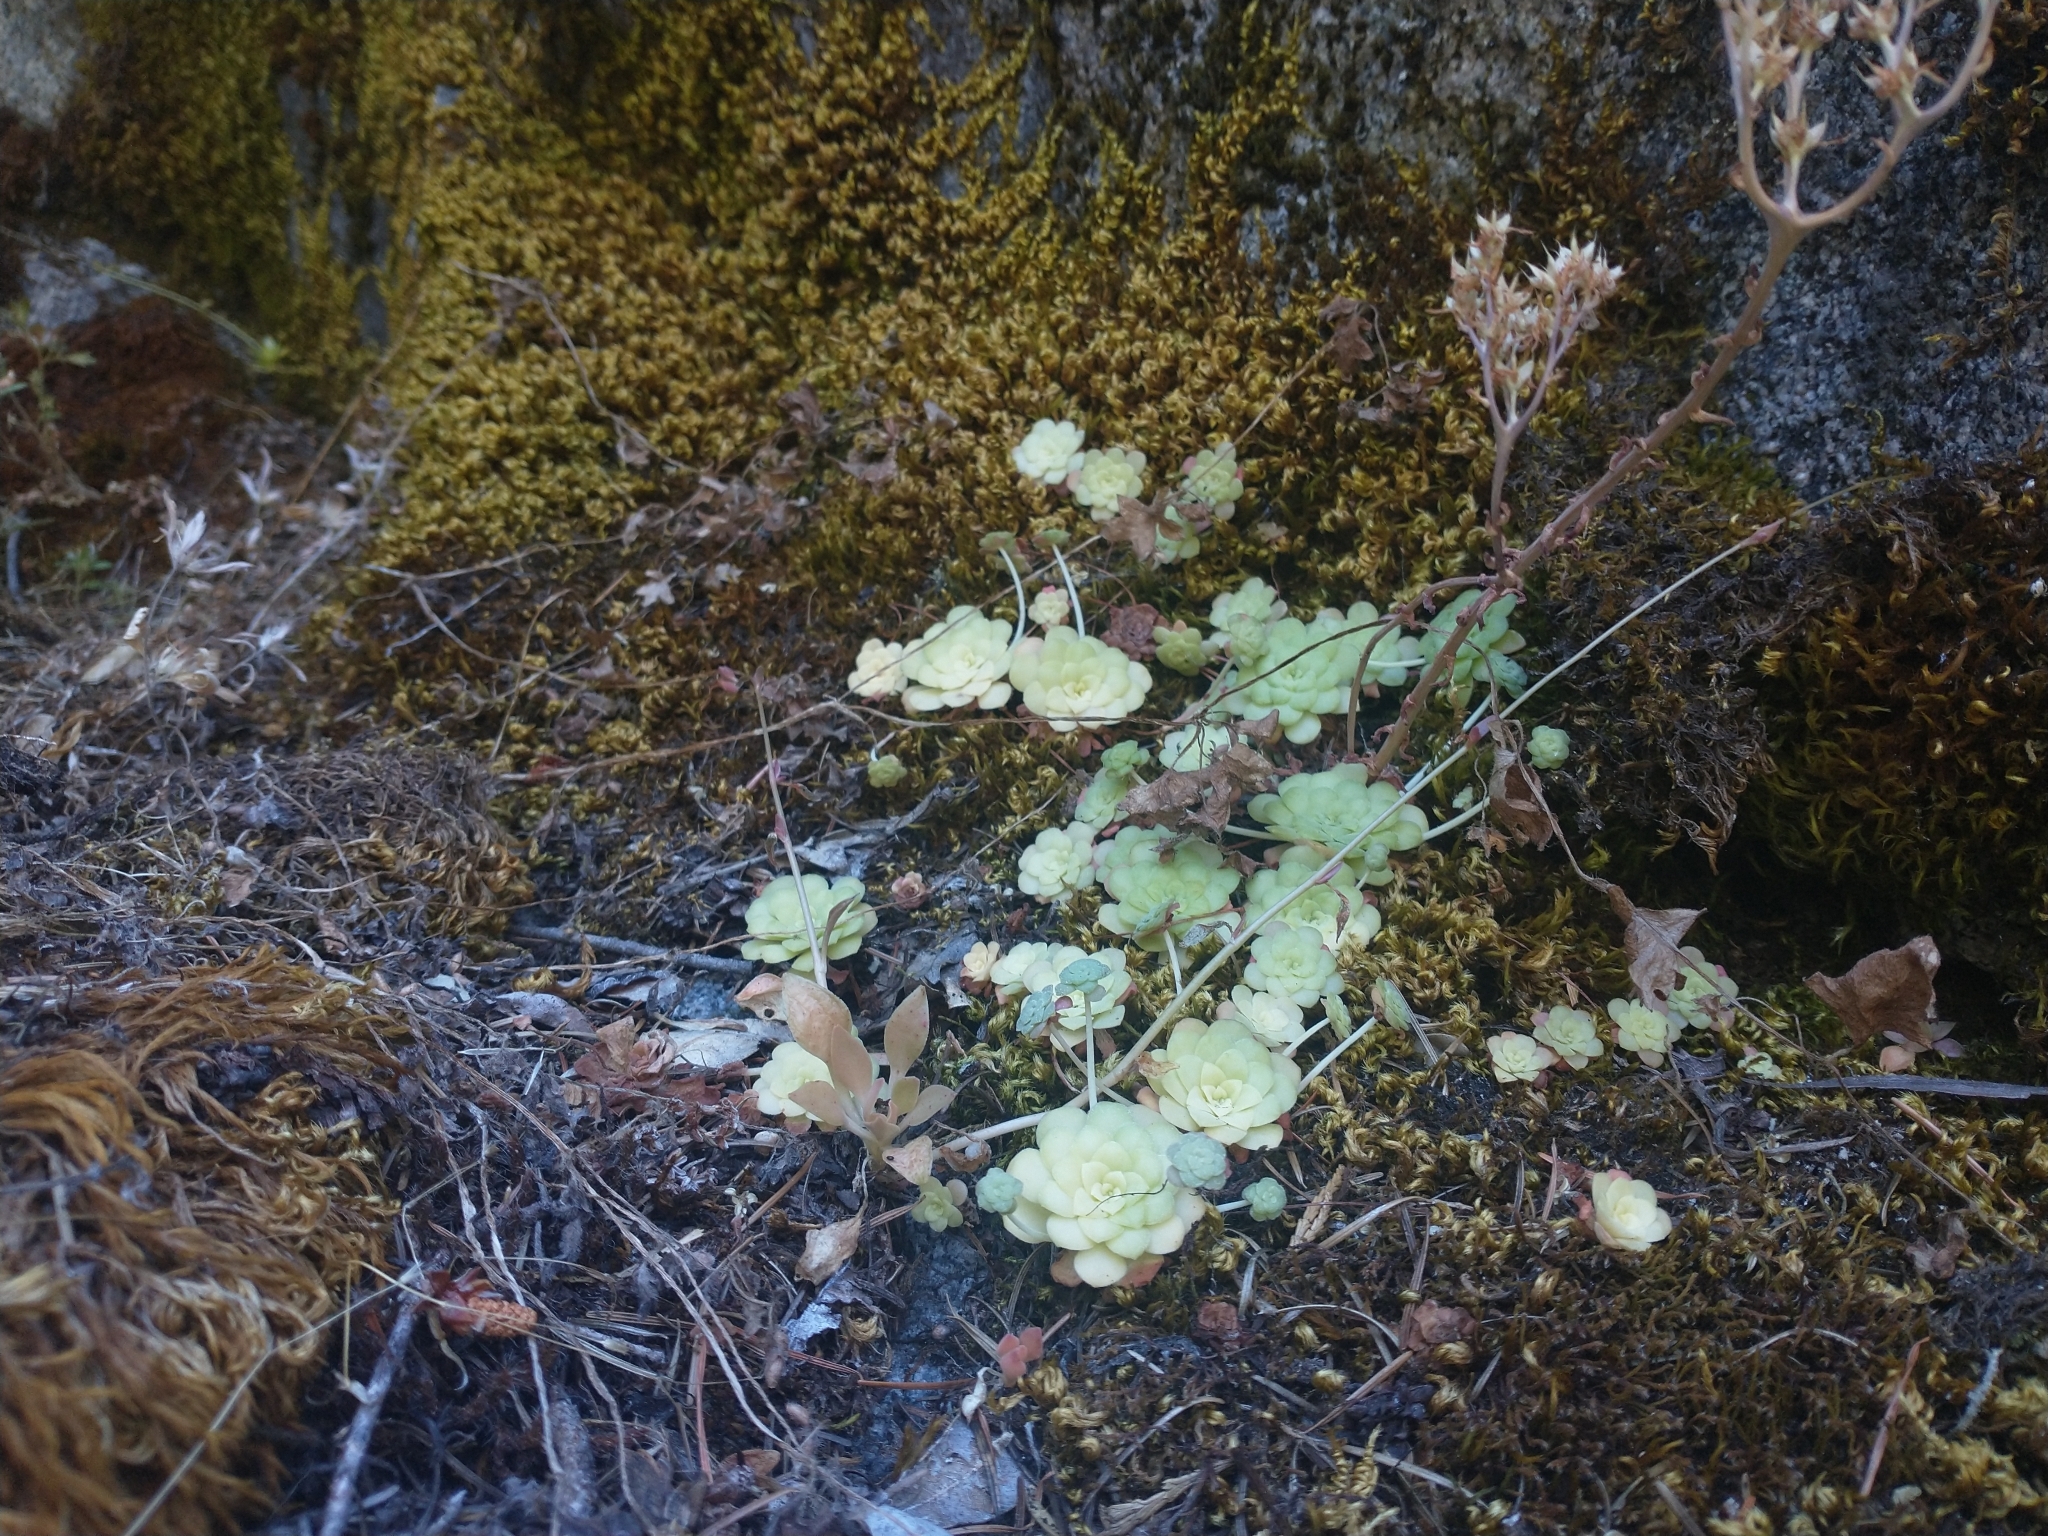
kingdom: Plantae
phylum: Tracheophyta
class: Magnoliopsida
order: Saxifragales
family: Crassulaceae
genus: Sedum
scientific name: Sedum spathulifolium
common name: Colorado stonecrop
